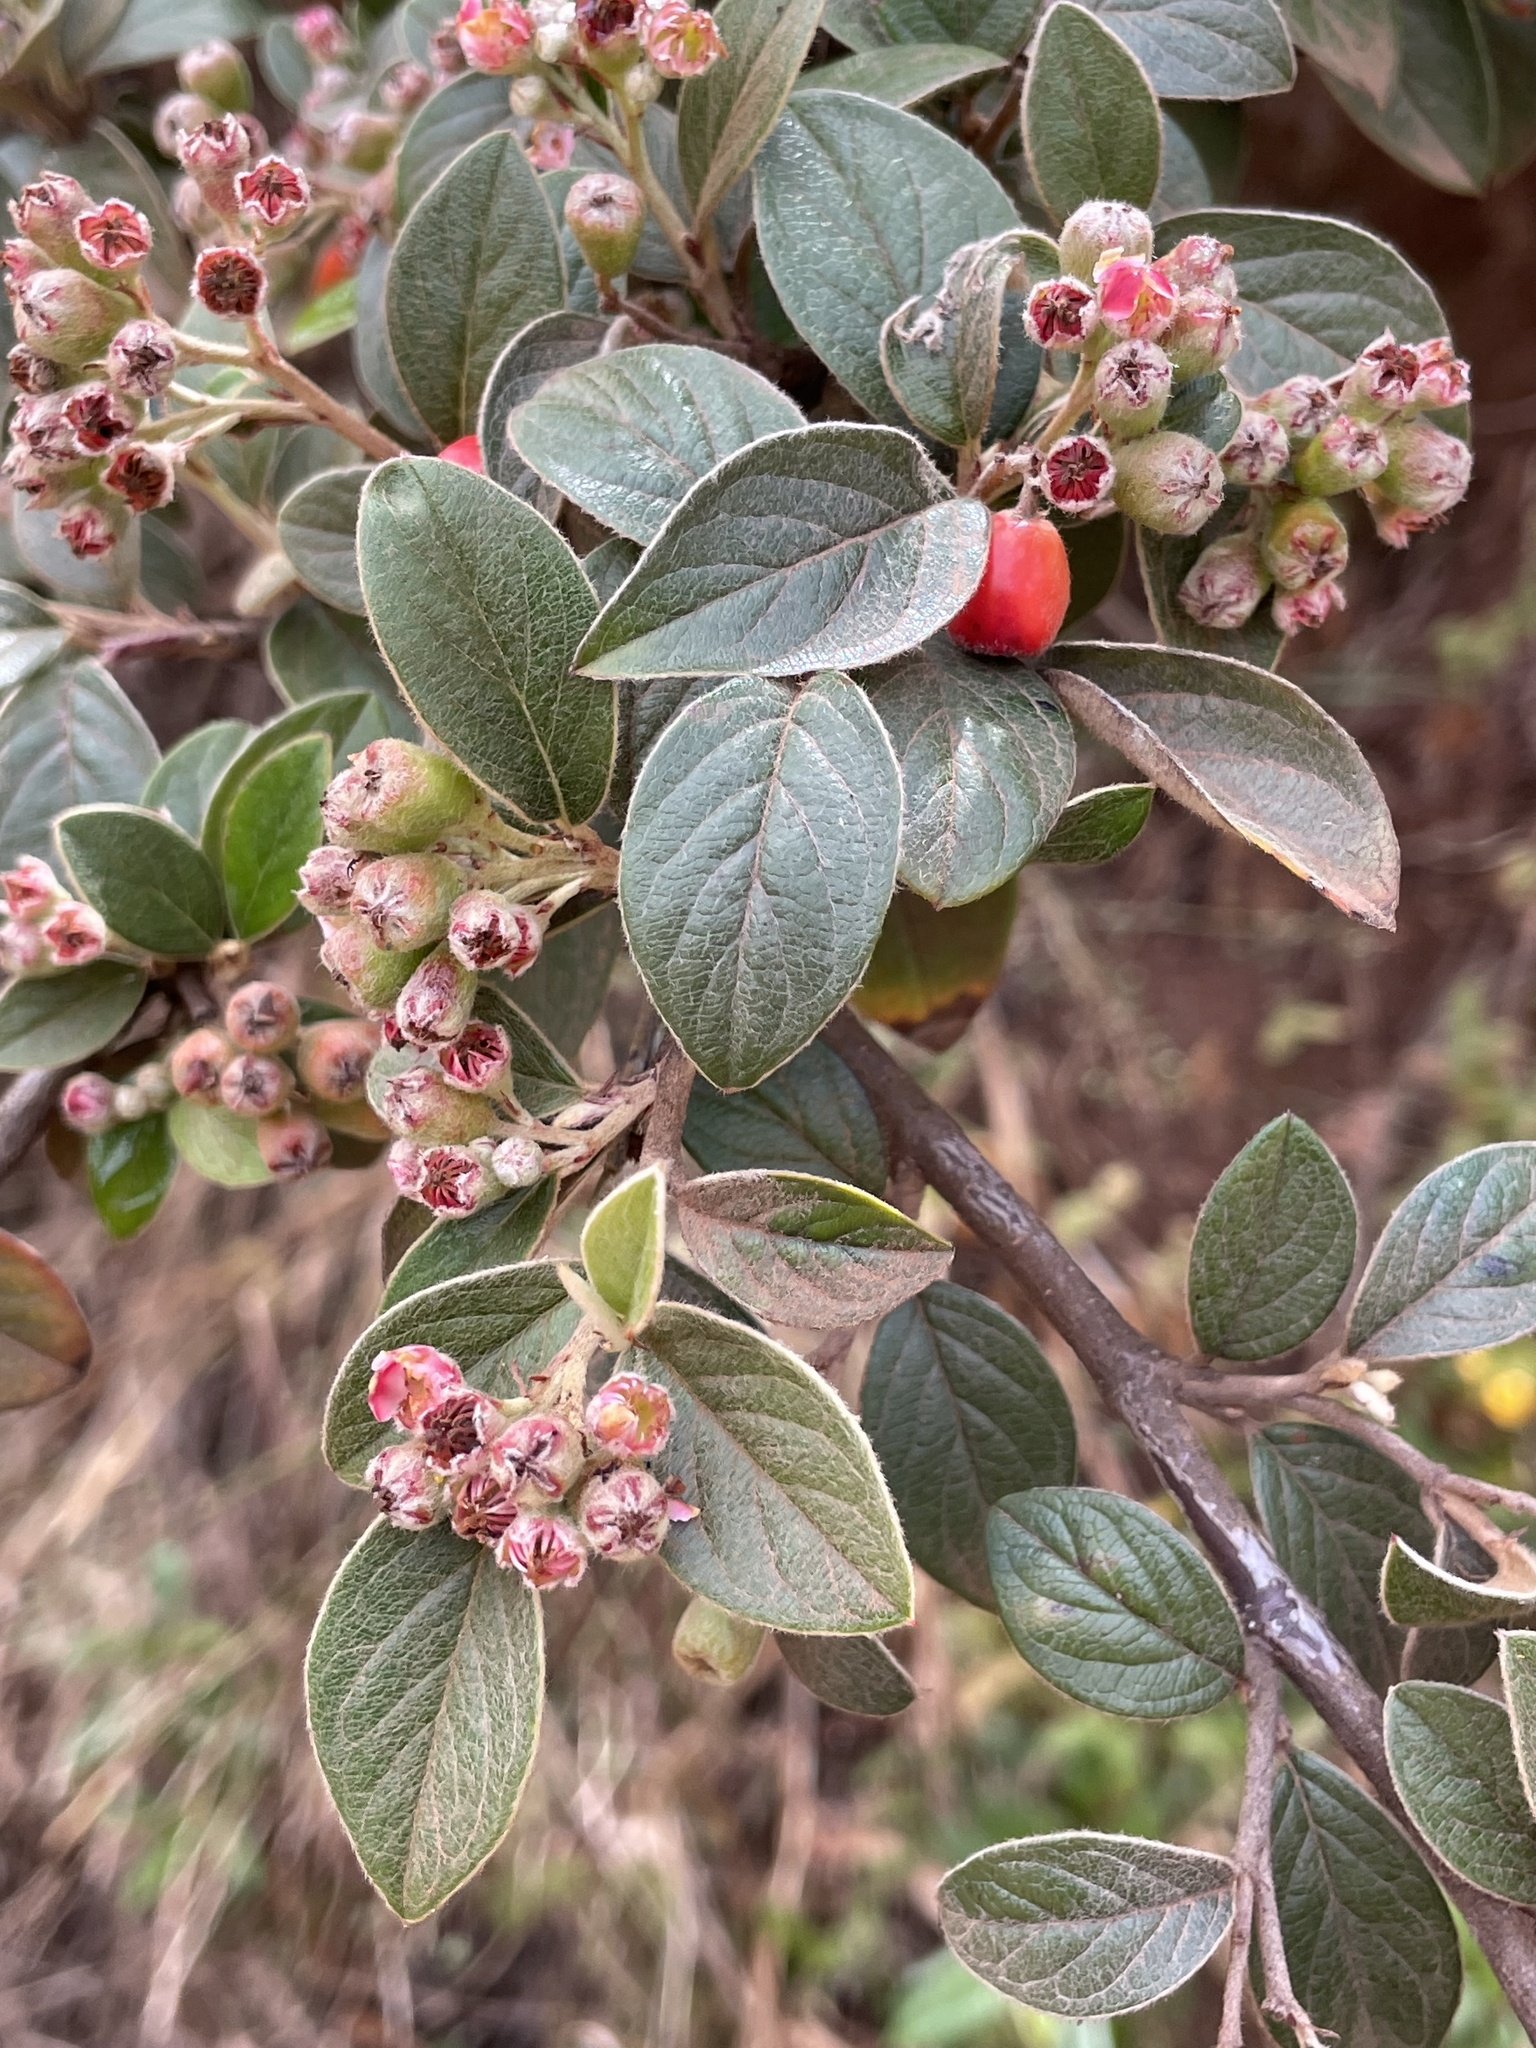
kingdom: Plantae
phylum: Tracheophyta
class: Magnoliopsida
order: Rosales
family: Rosaceae
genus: Cotoneaster
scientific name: Cotoneaster franchetii
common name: Franchet's cotoneaster
